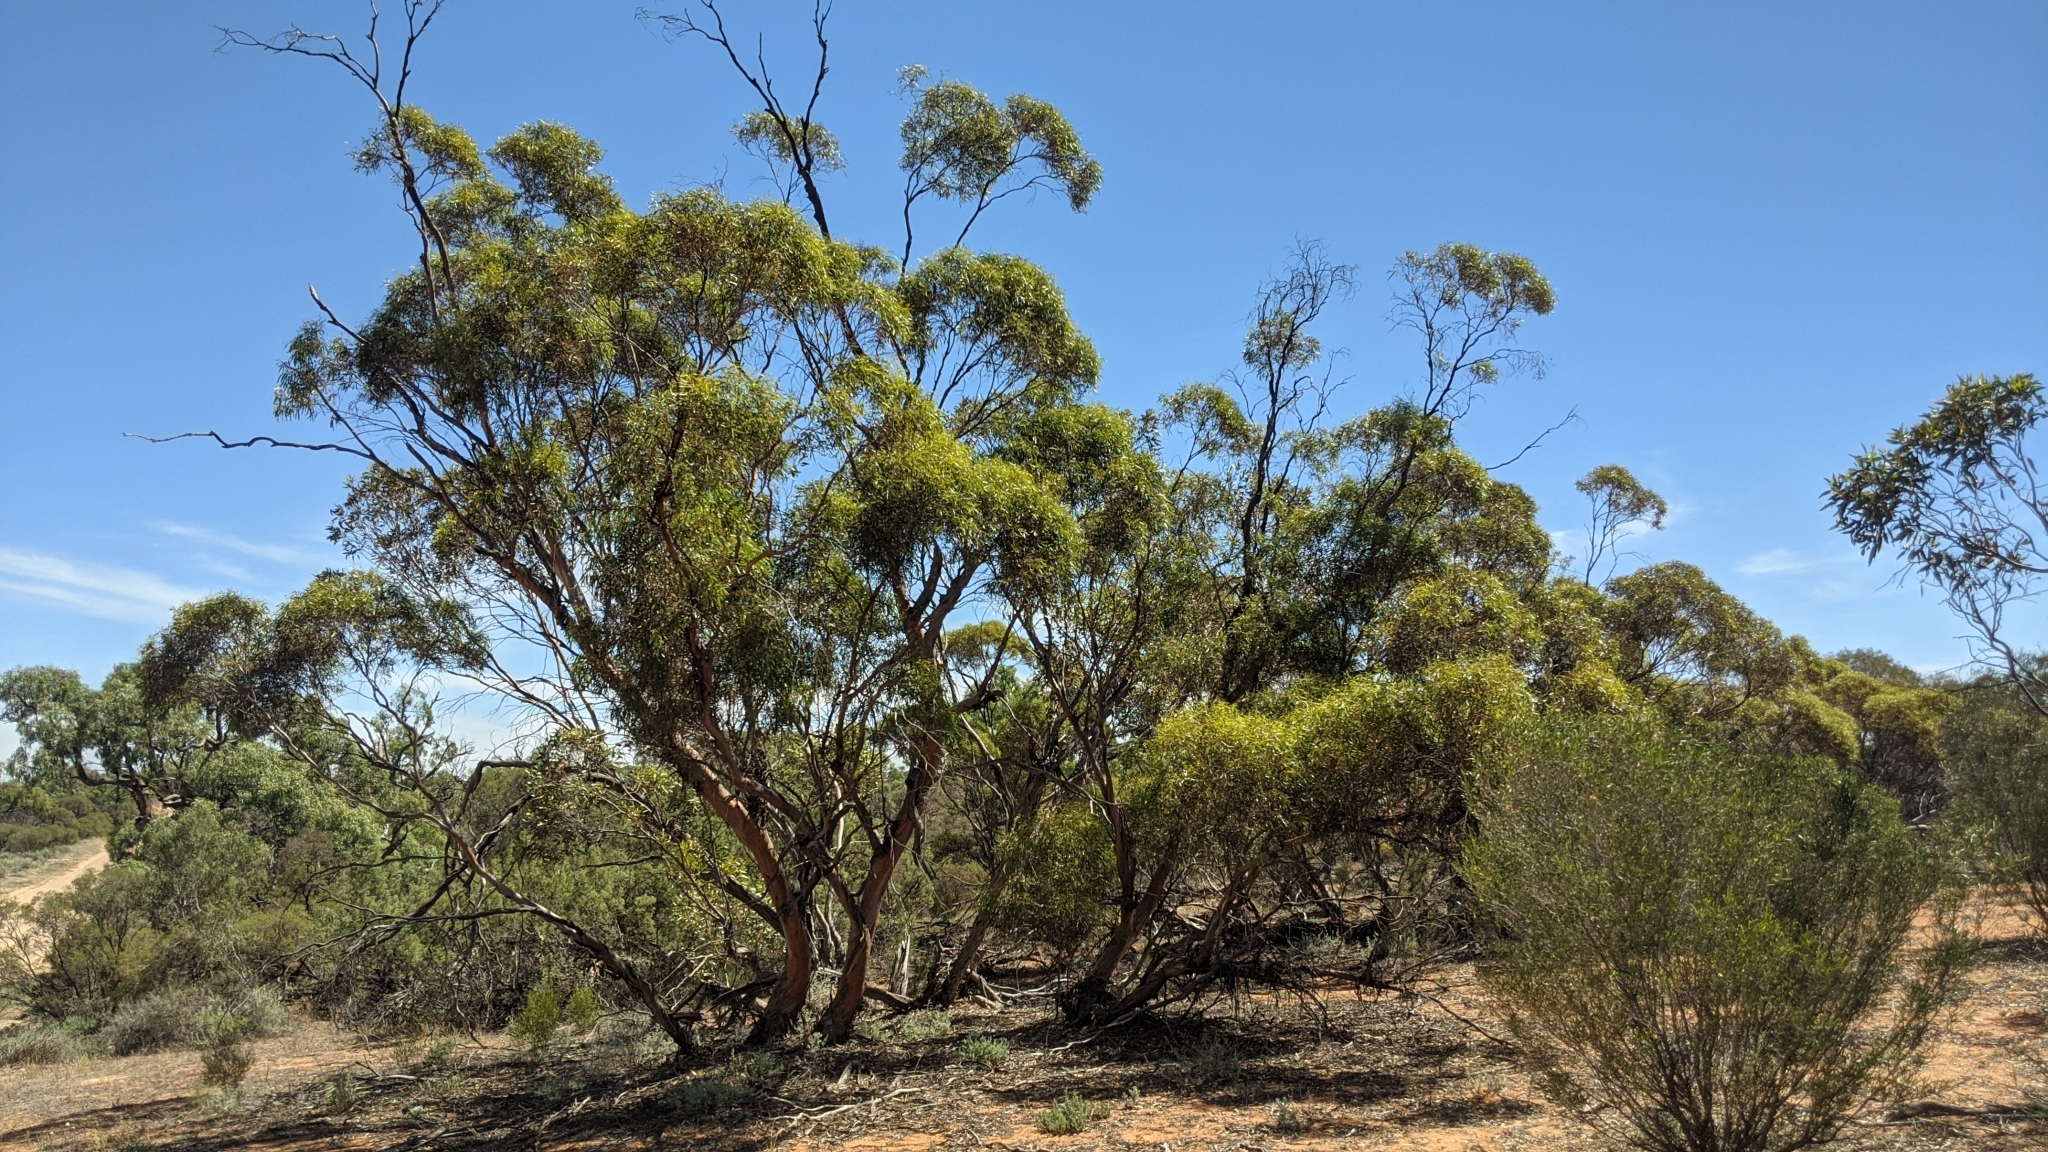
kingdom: Plantae
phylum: Tracheophyta
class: Magnoliopsida
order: Myrtales
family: Myrtaceae
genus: Eucalyptus
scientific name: Eucalyptus foecunda
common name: Freemantle mallee
